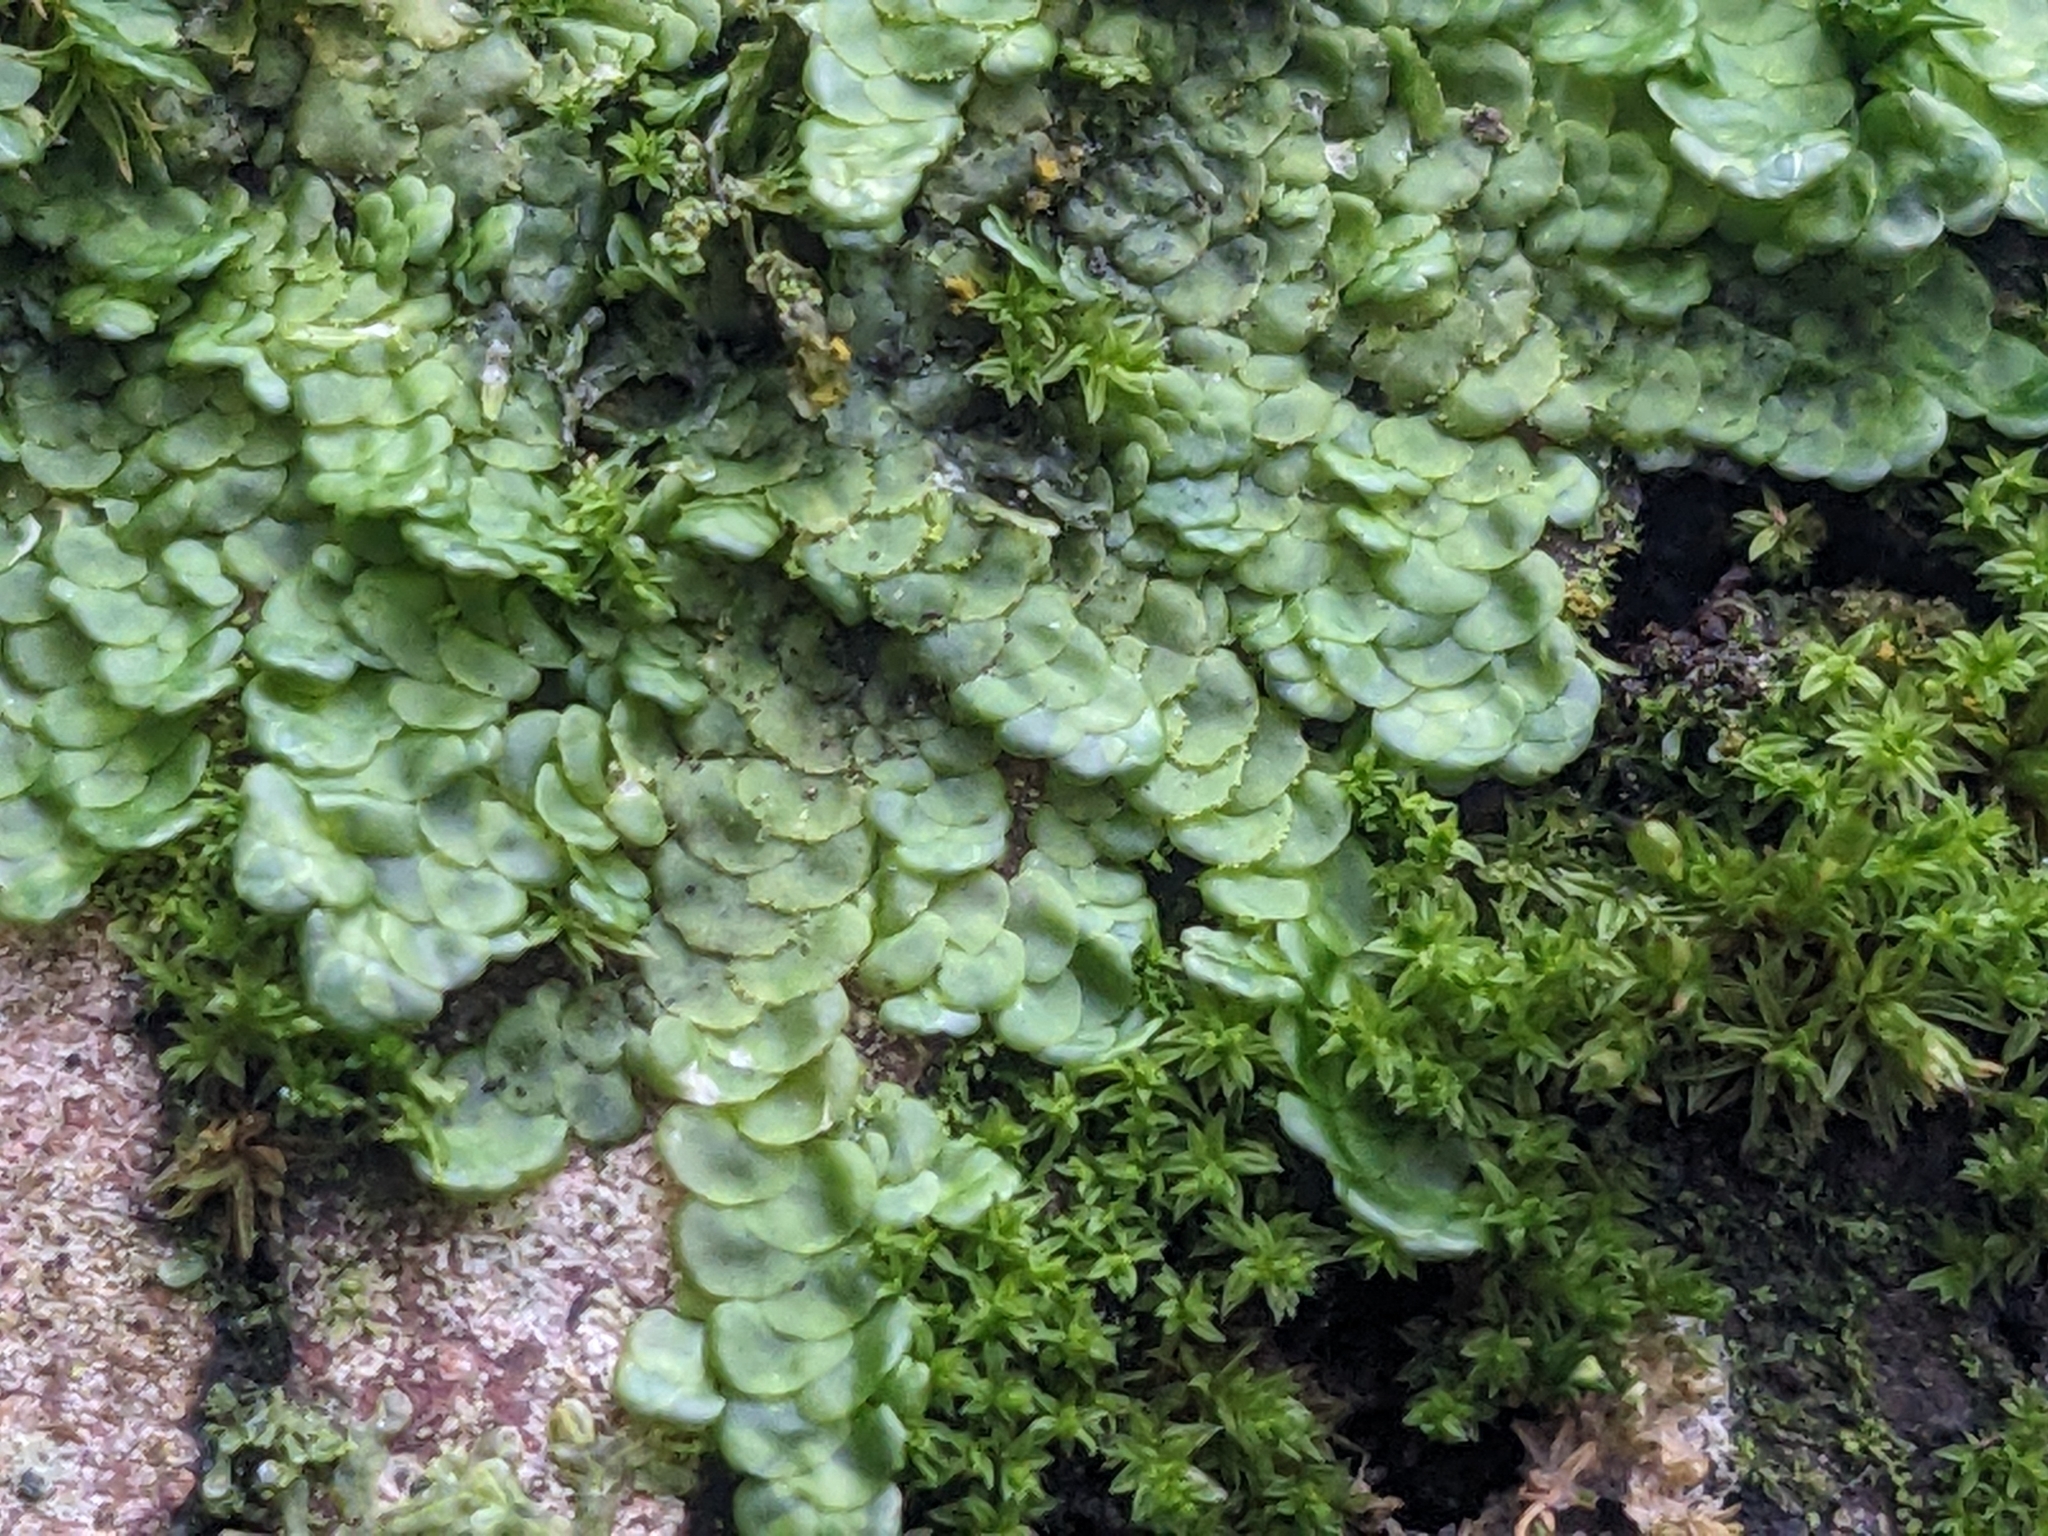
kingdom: Plantae
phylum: Marchantiophyta
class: Jungermanniopsida
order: Porellales
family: Radulaceae
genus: Radula
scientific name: Radula complanata
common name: Flat-leaved scalewort
